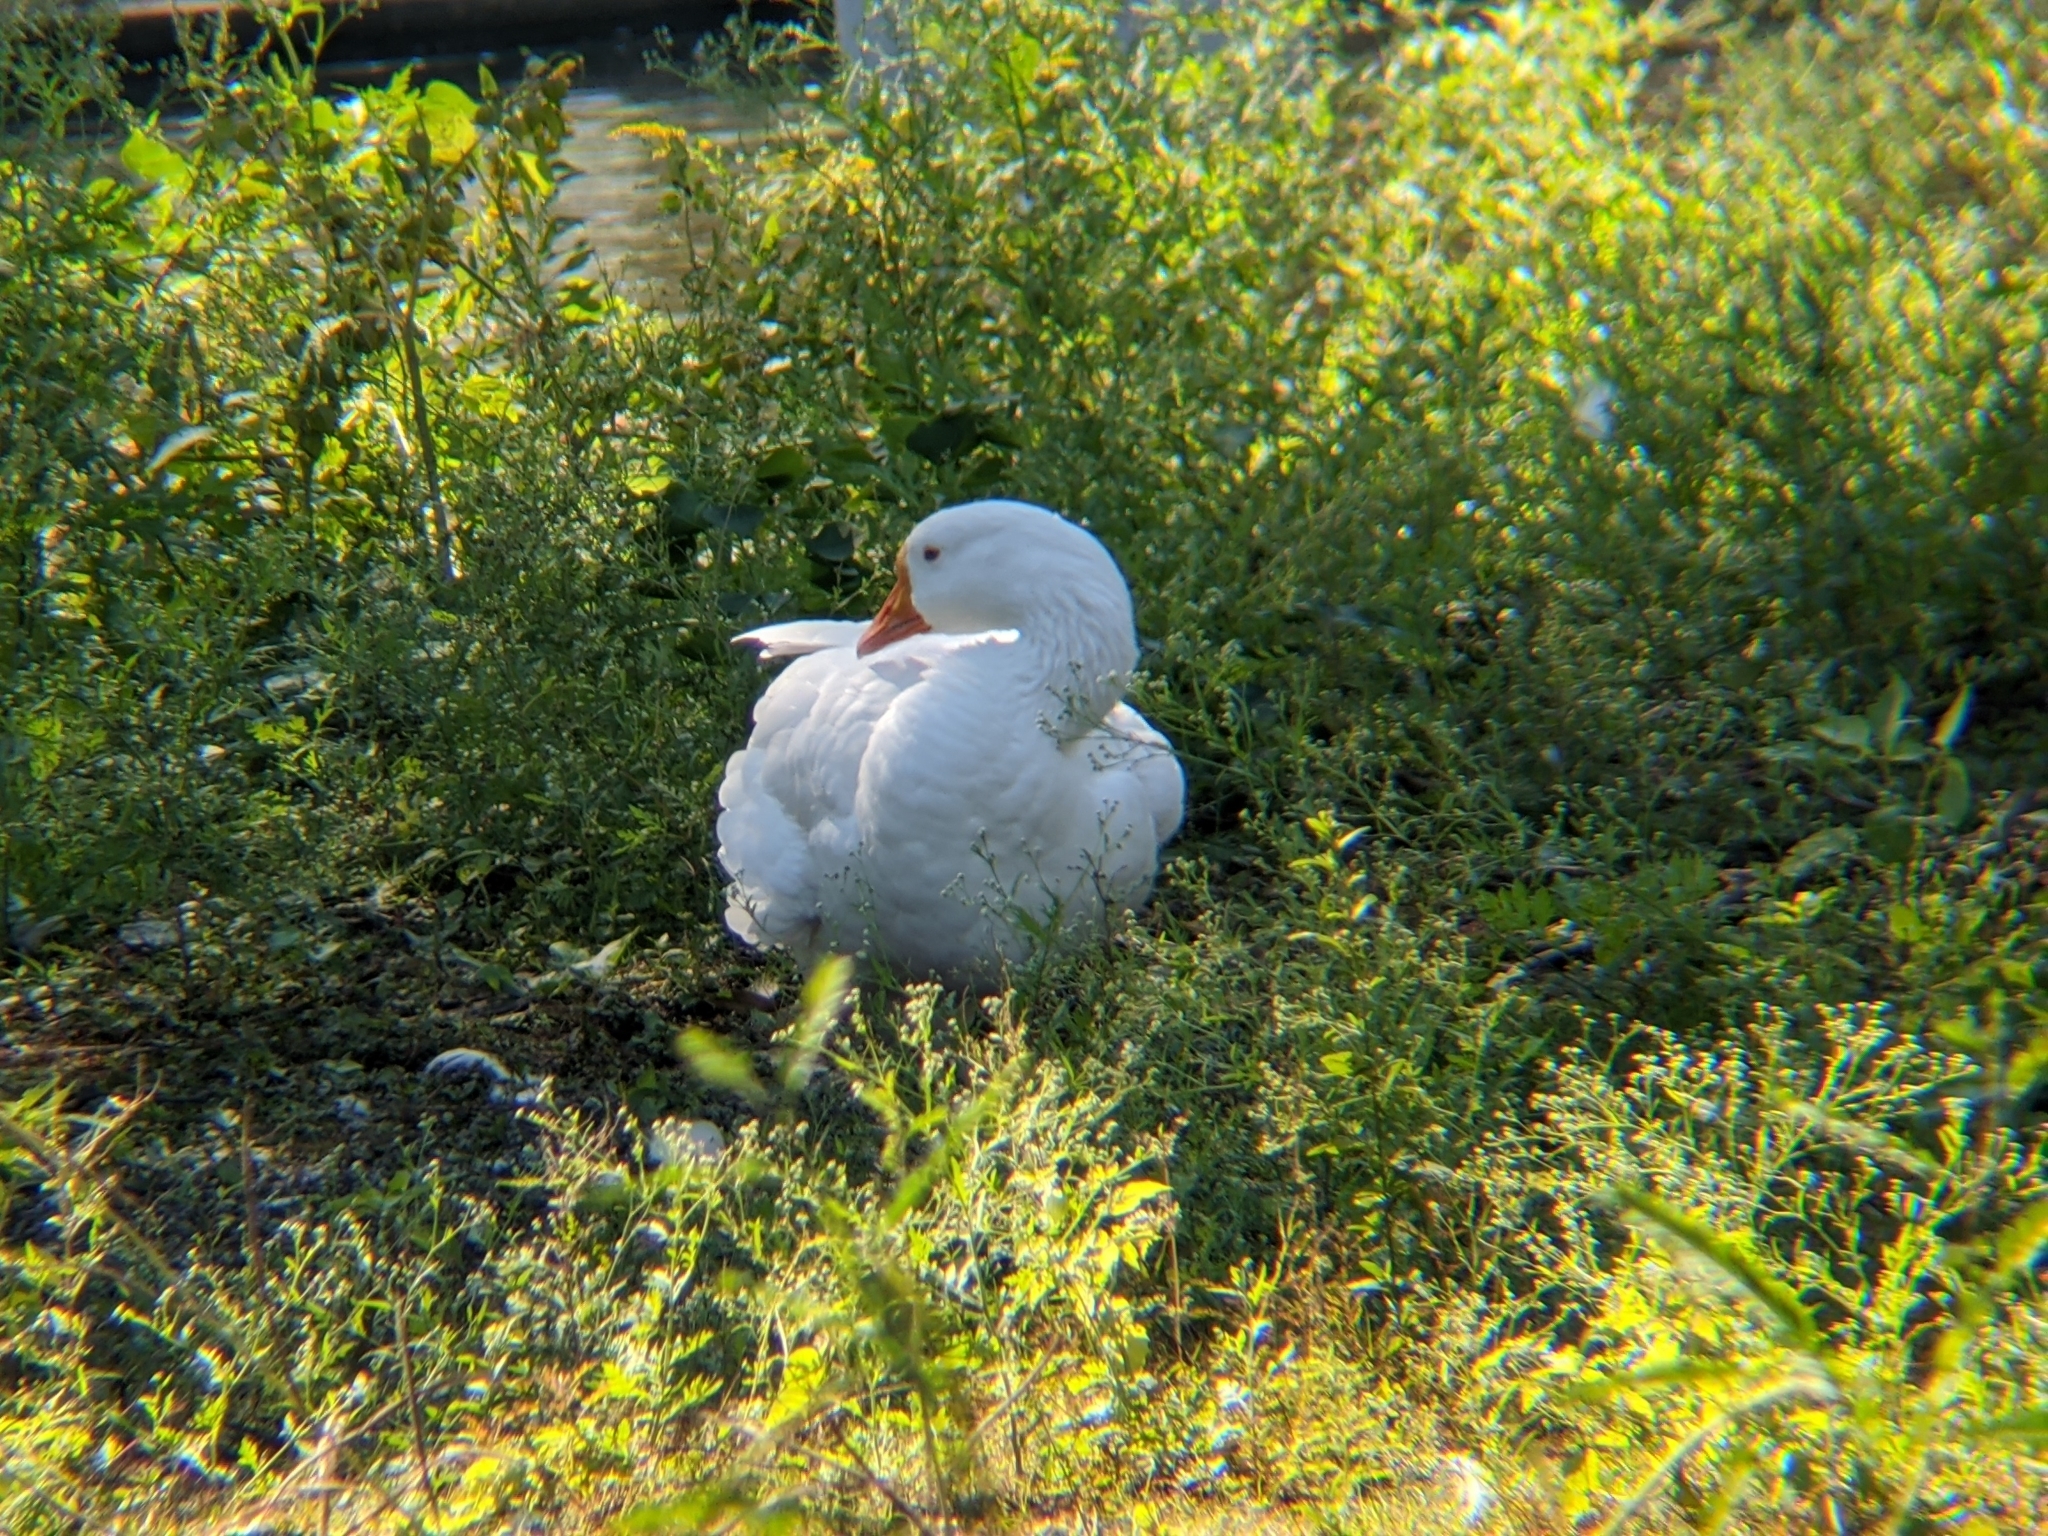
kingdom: Animalia
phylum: Chordata
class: Aves
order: Anseriformes
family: Anatidae
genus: Anser
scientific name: Anser
